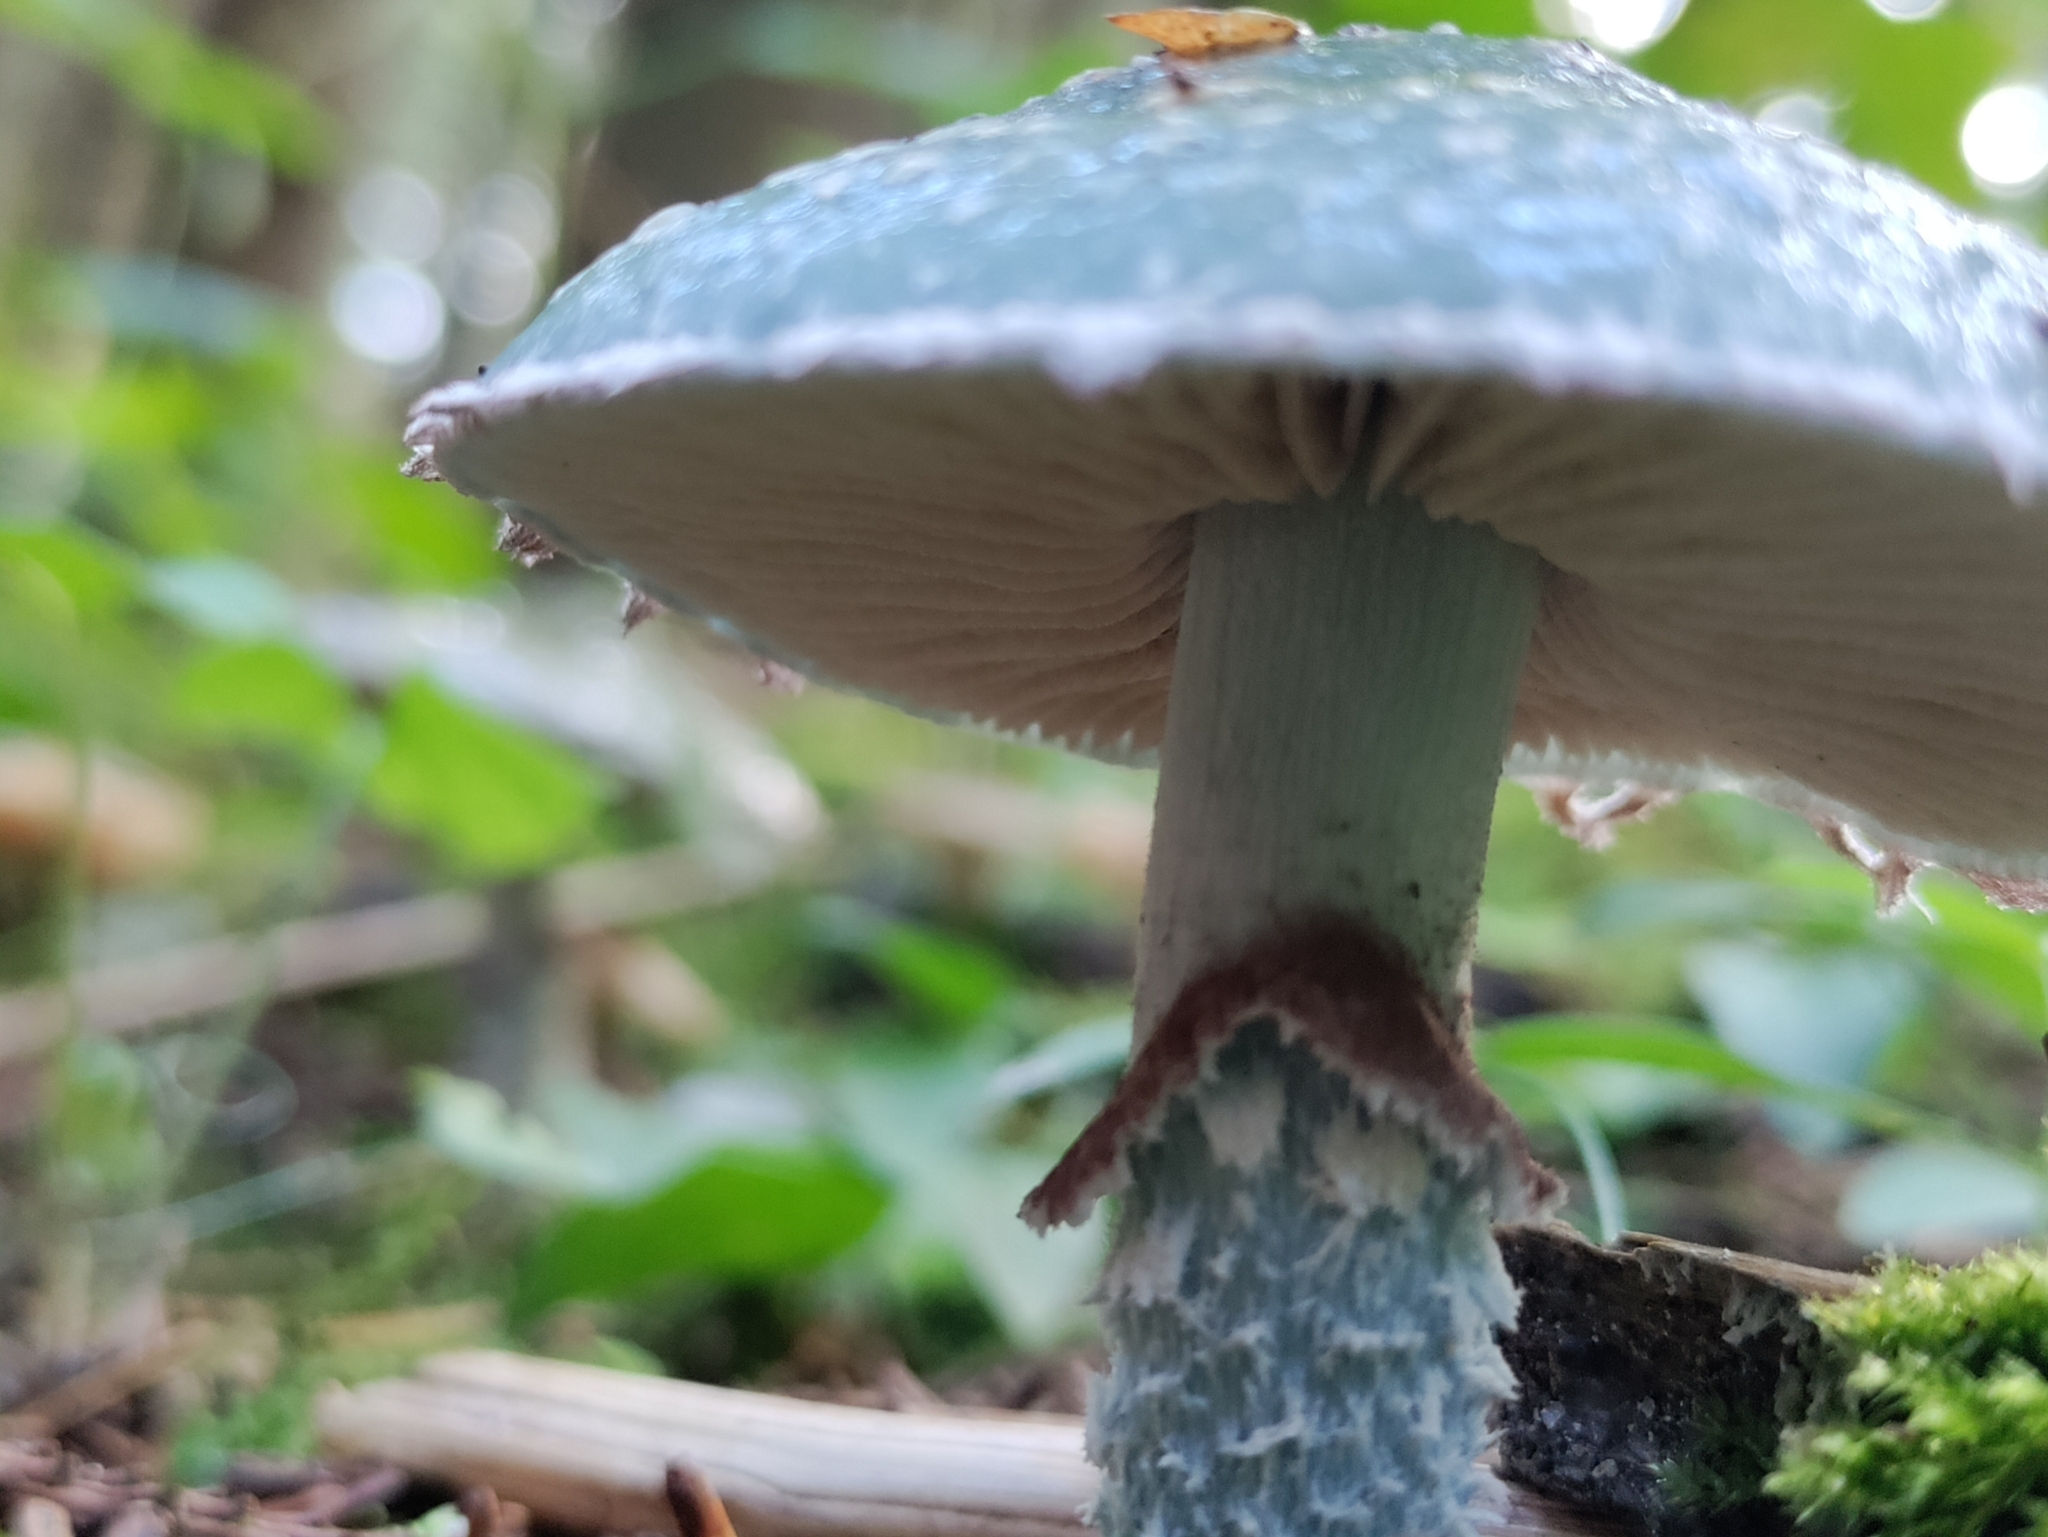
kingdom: Fungi
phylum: Basidiomycota
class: Agaricomycetes
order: Agaricales
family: Strophariaceae
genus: Stropharia
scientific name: Stropharia aeruginosa
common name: Verdigris roundhead
